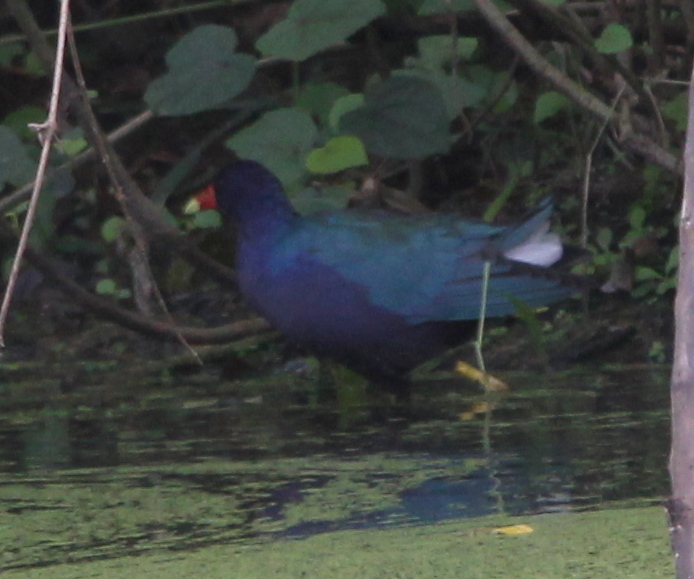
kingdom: Animalia
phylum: Chordata
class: Aves
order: Gruiformes
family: Rallidae
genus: Porphyrio
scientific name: Porphyrio martinica
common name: Purple gallinule
